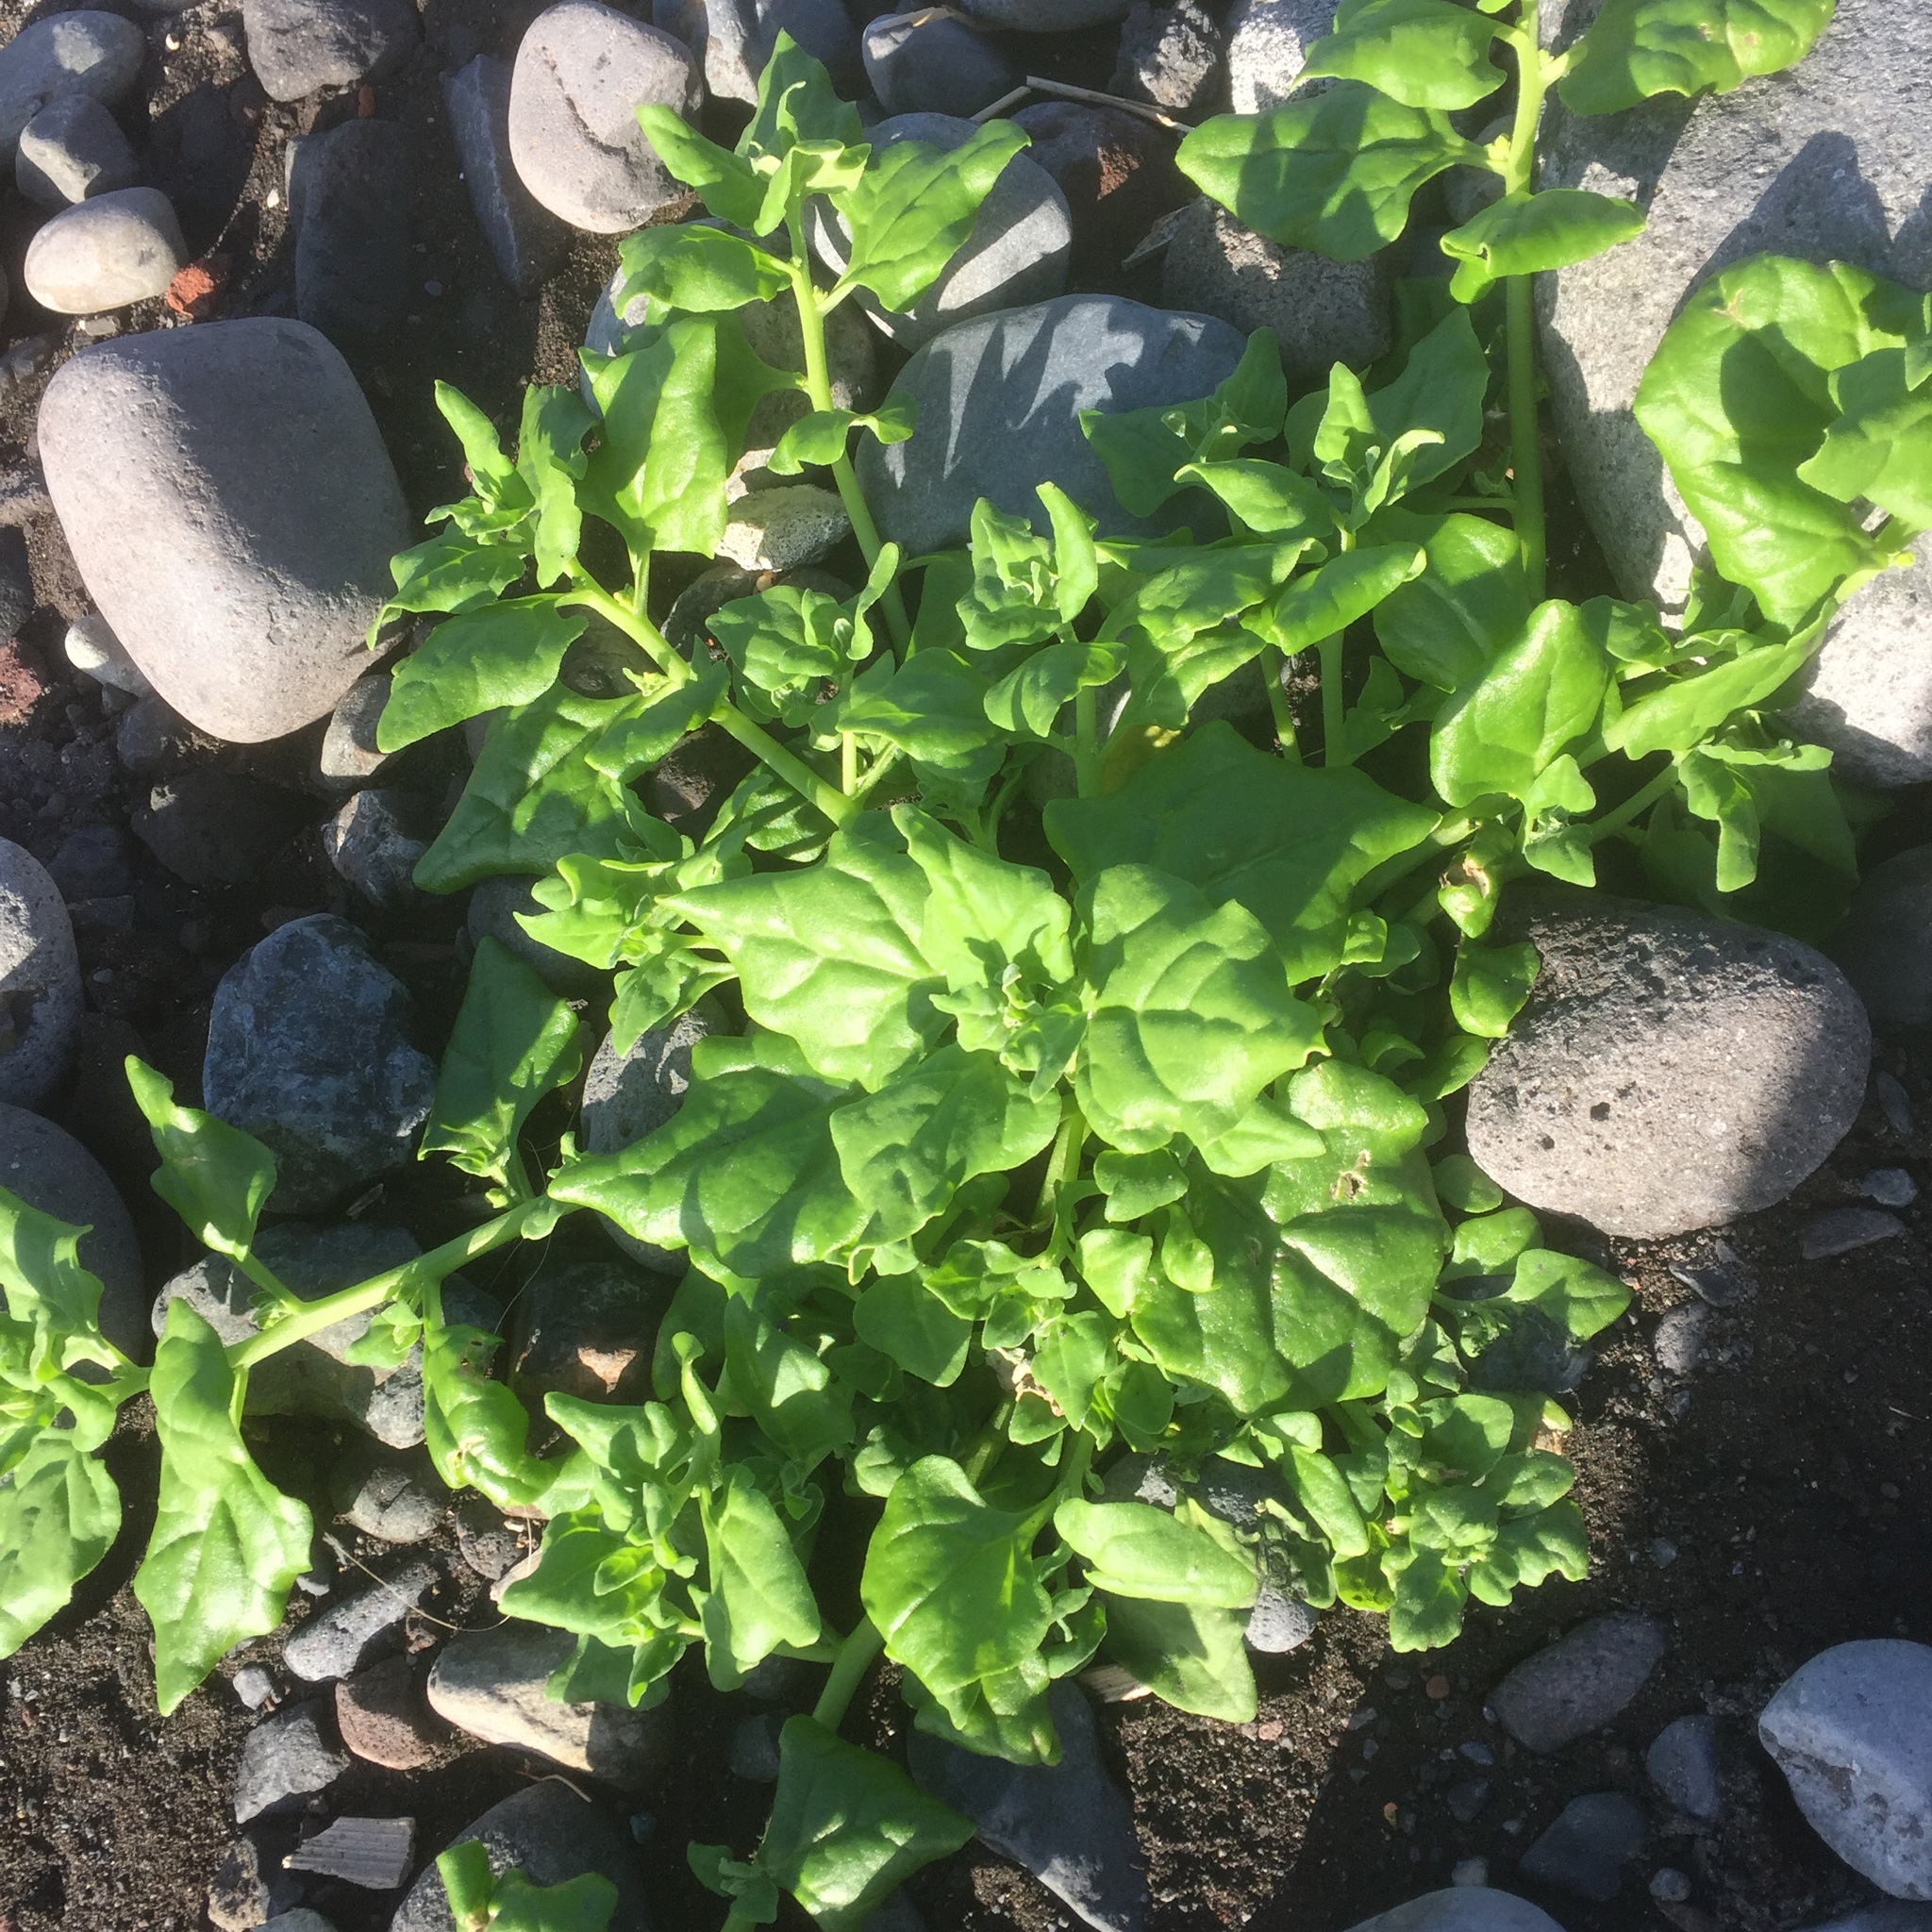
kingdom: Plantae
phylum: Tracheophyta
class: Magnoliopsida
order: Caryophyllales
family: Aizoaceae
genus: Tetragonia
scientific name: Tetragonia tetragonoides
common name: New zealand-spinach
